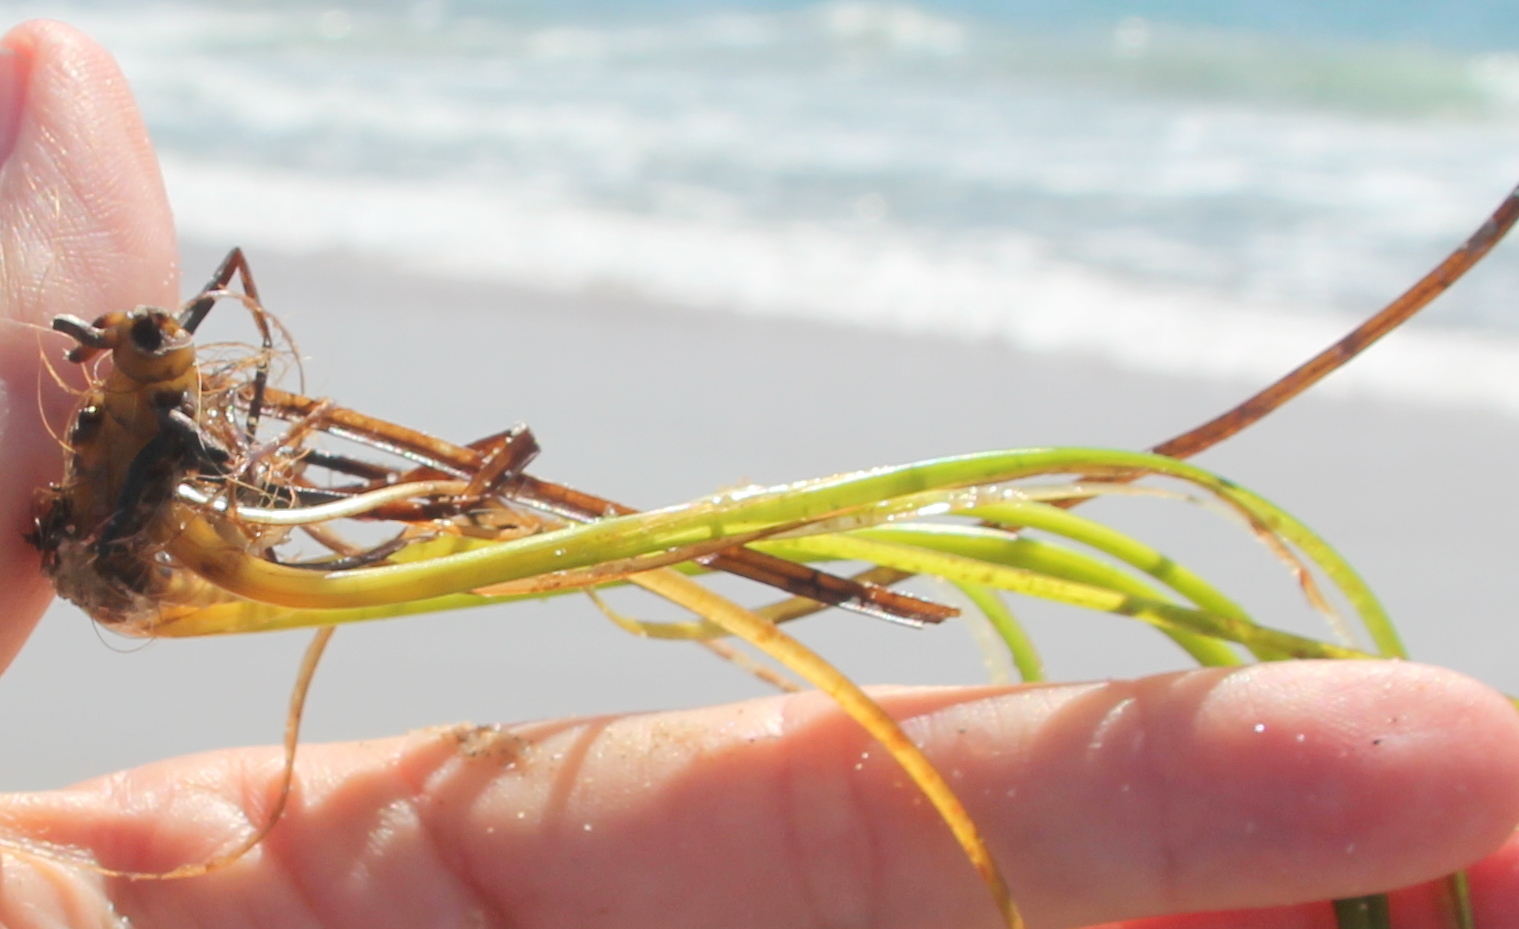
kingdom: Plantae
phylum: Tracheophyta
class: Liliopsida
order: Alismatales
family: Zosteraceae
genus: Zostera
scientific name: Zostera marina
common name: Eelgrass
